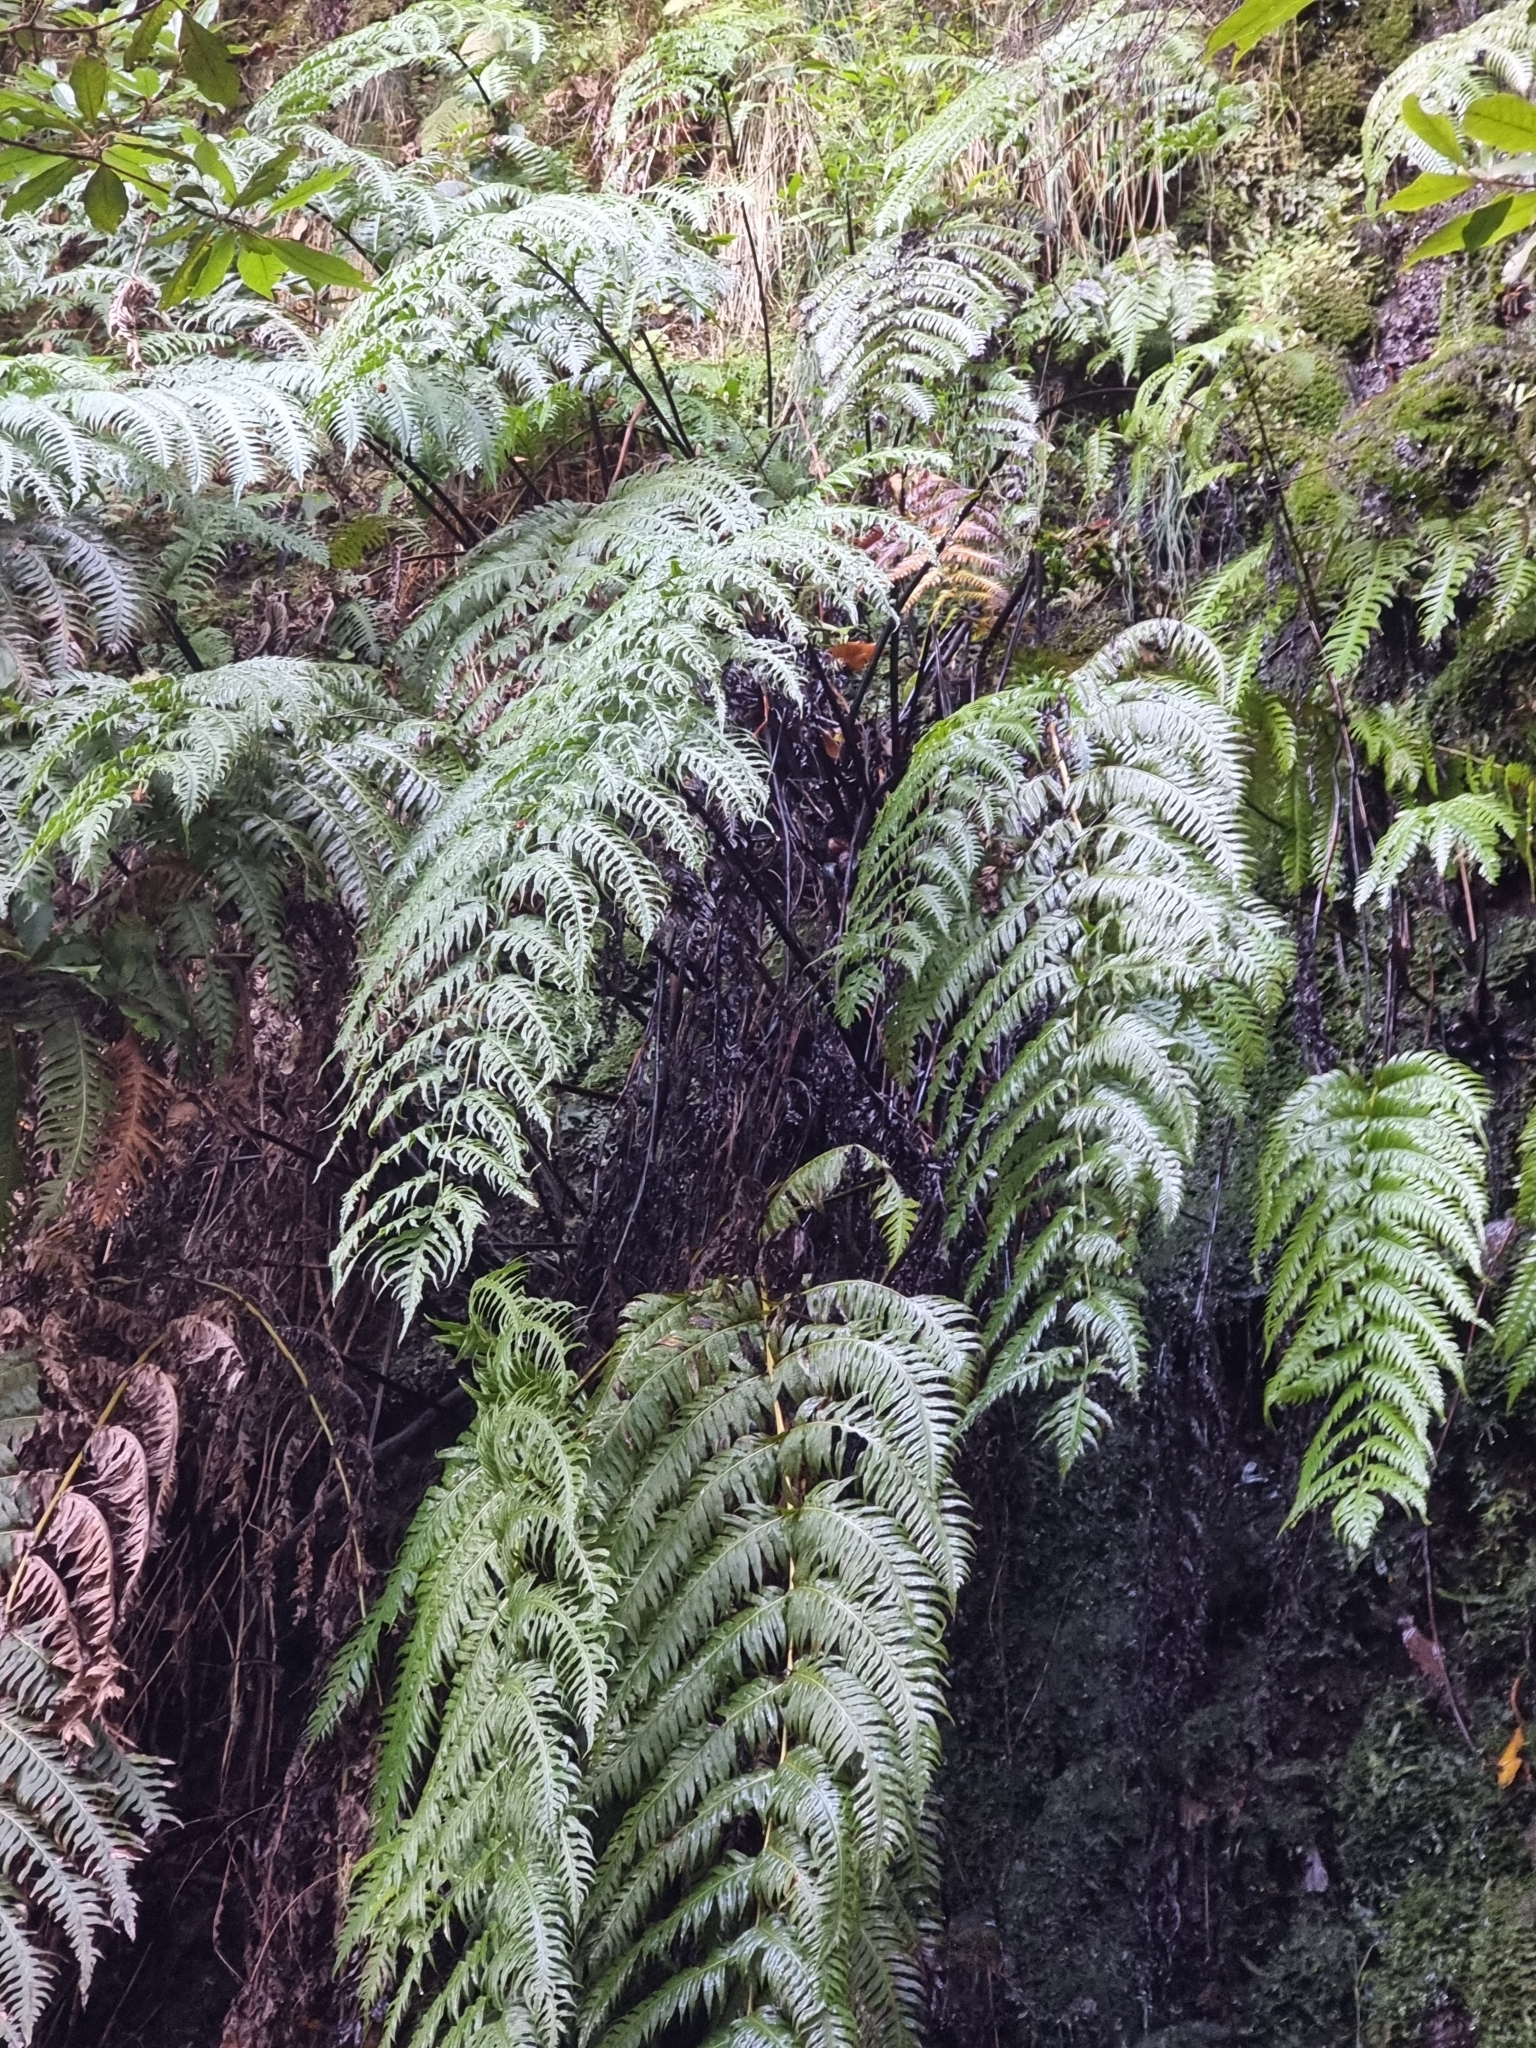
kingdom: Plantae
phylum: Tracheophyta
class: Polypodiopsida
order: Polypodiales
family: Blechnaceae
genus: Woodwardia
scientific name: Woodwardia radicans
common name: Rooting chainfern
